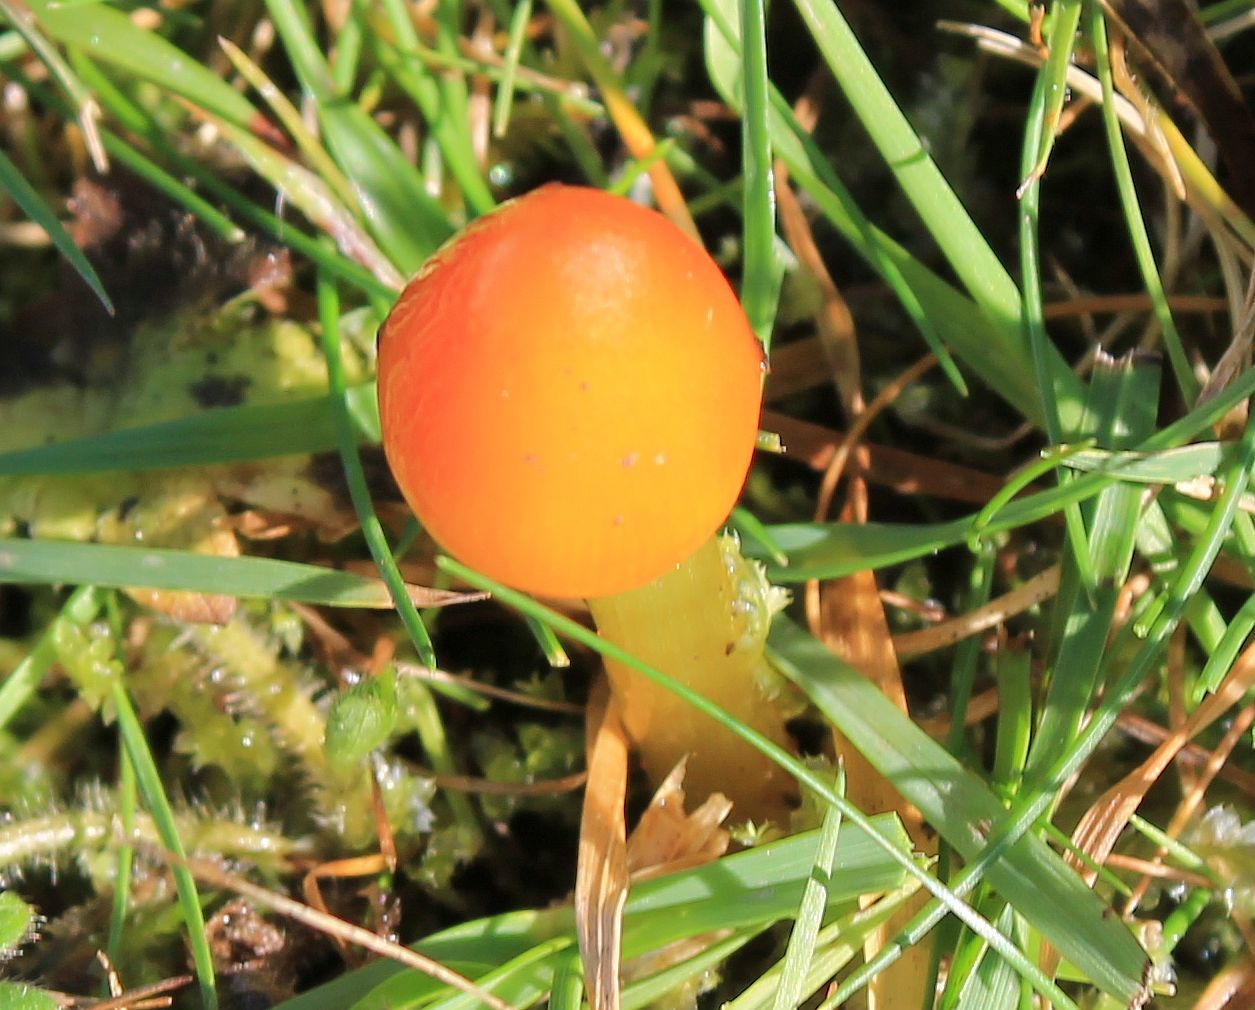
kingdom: Fungi
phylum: Basidiomycota
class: Agaricomycetes
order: Agaricales
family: Hygrophoraceae
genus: Hygrocybe
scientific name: Hygrocybe conica
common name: Blackening wax-cap
